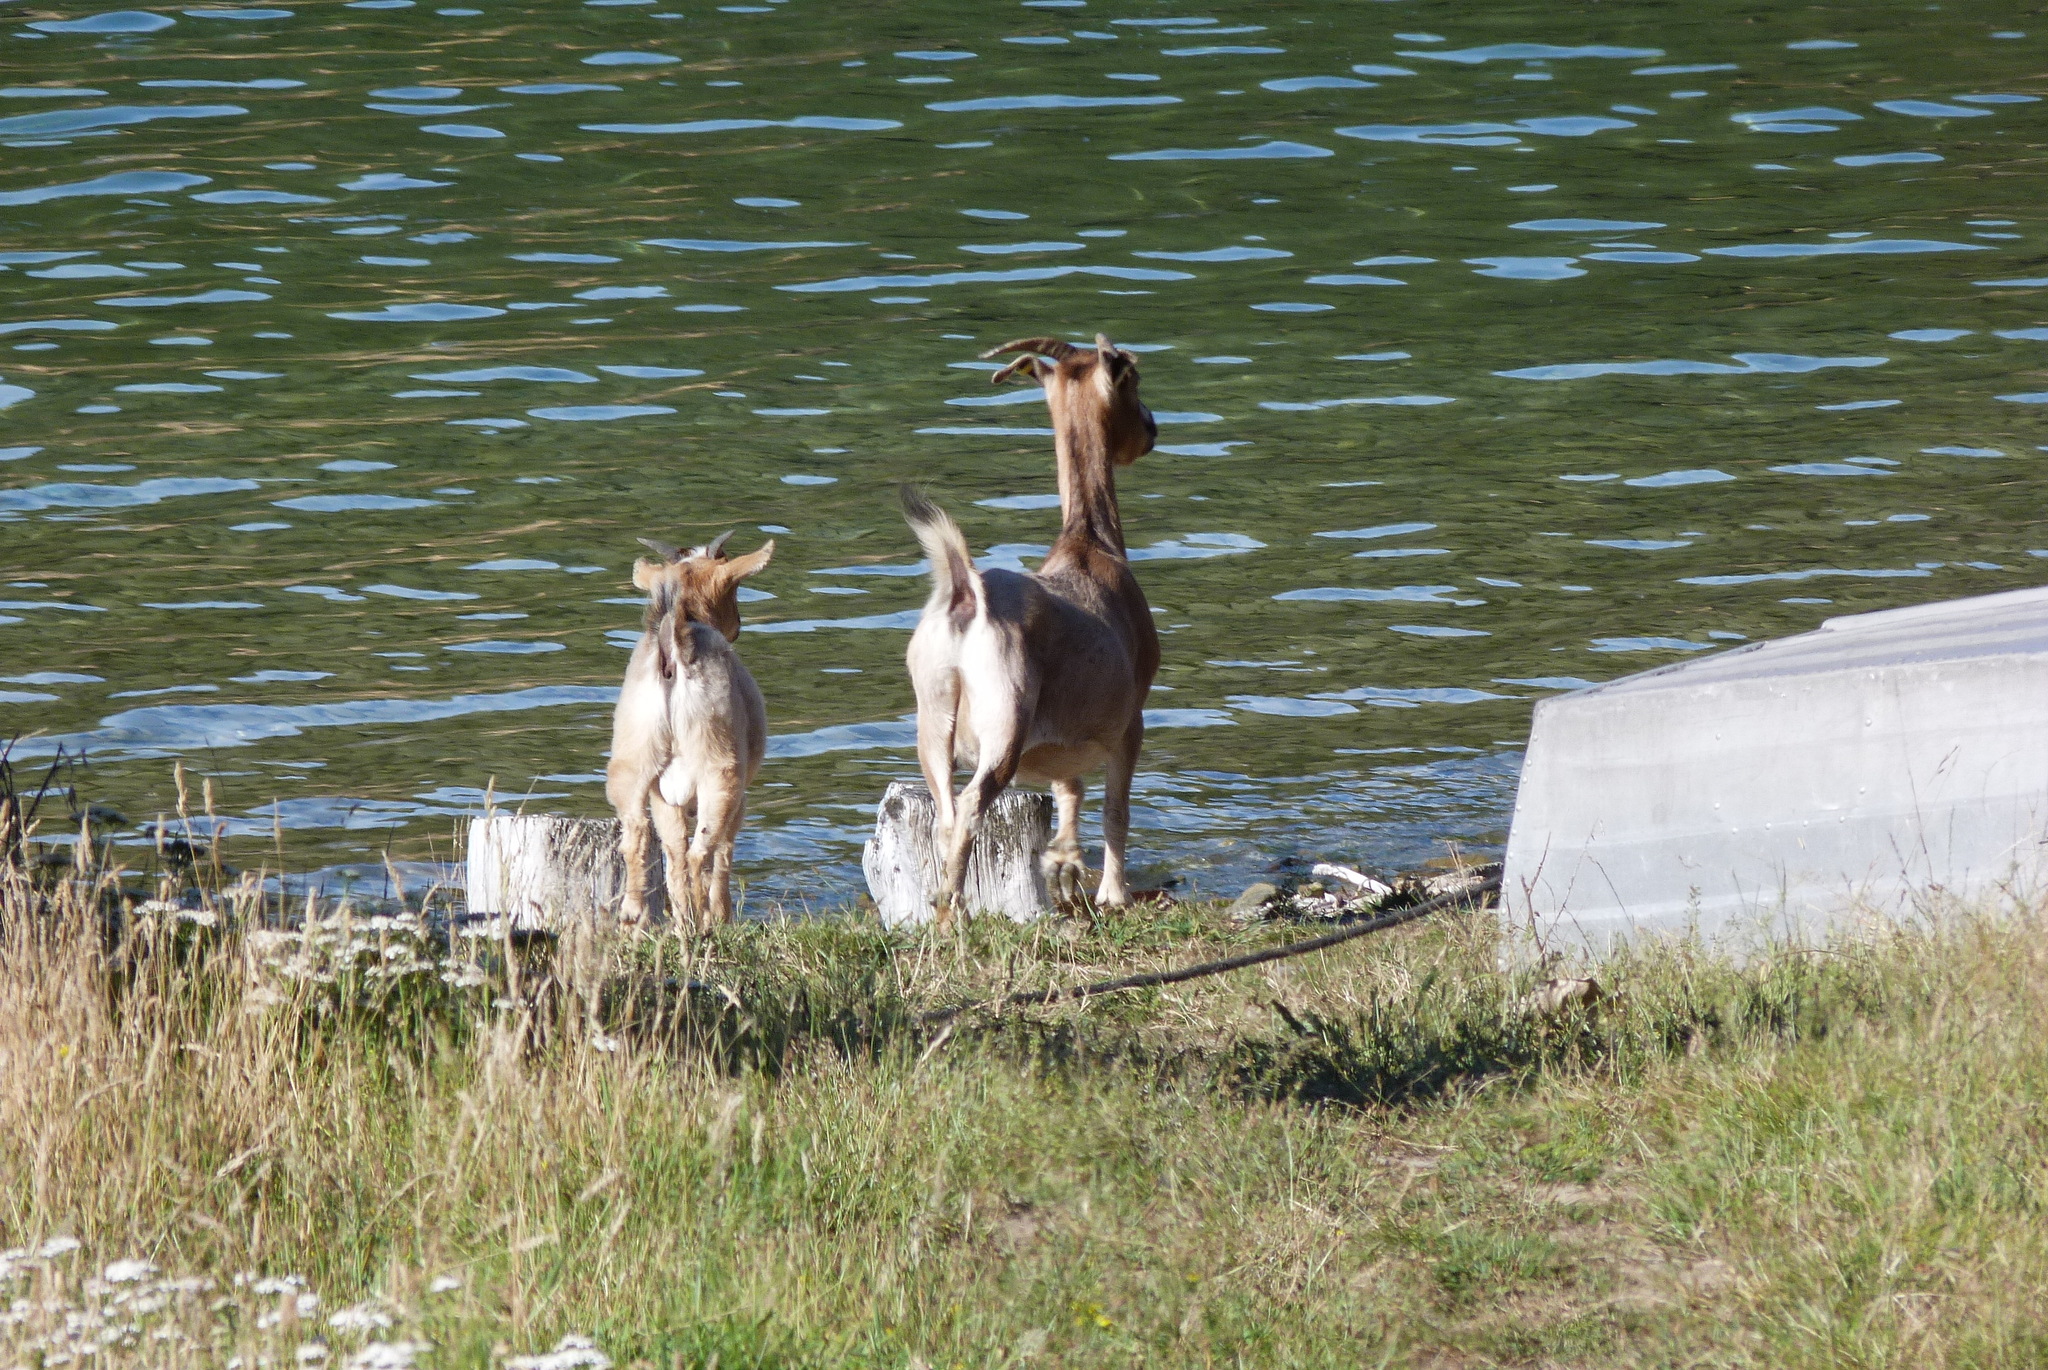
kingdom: Animalia
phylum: Chordata
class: Mammalia
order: Artiodactyla
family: Bovidae
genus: Capra
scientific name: Capra hircus
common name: Domestic goat
